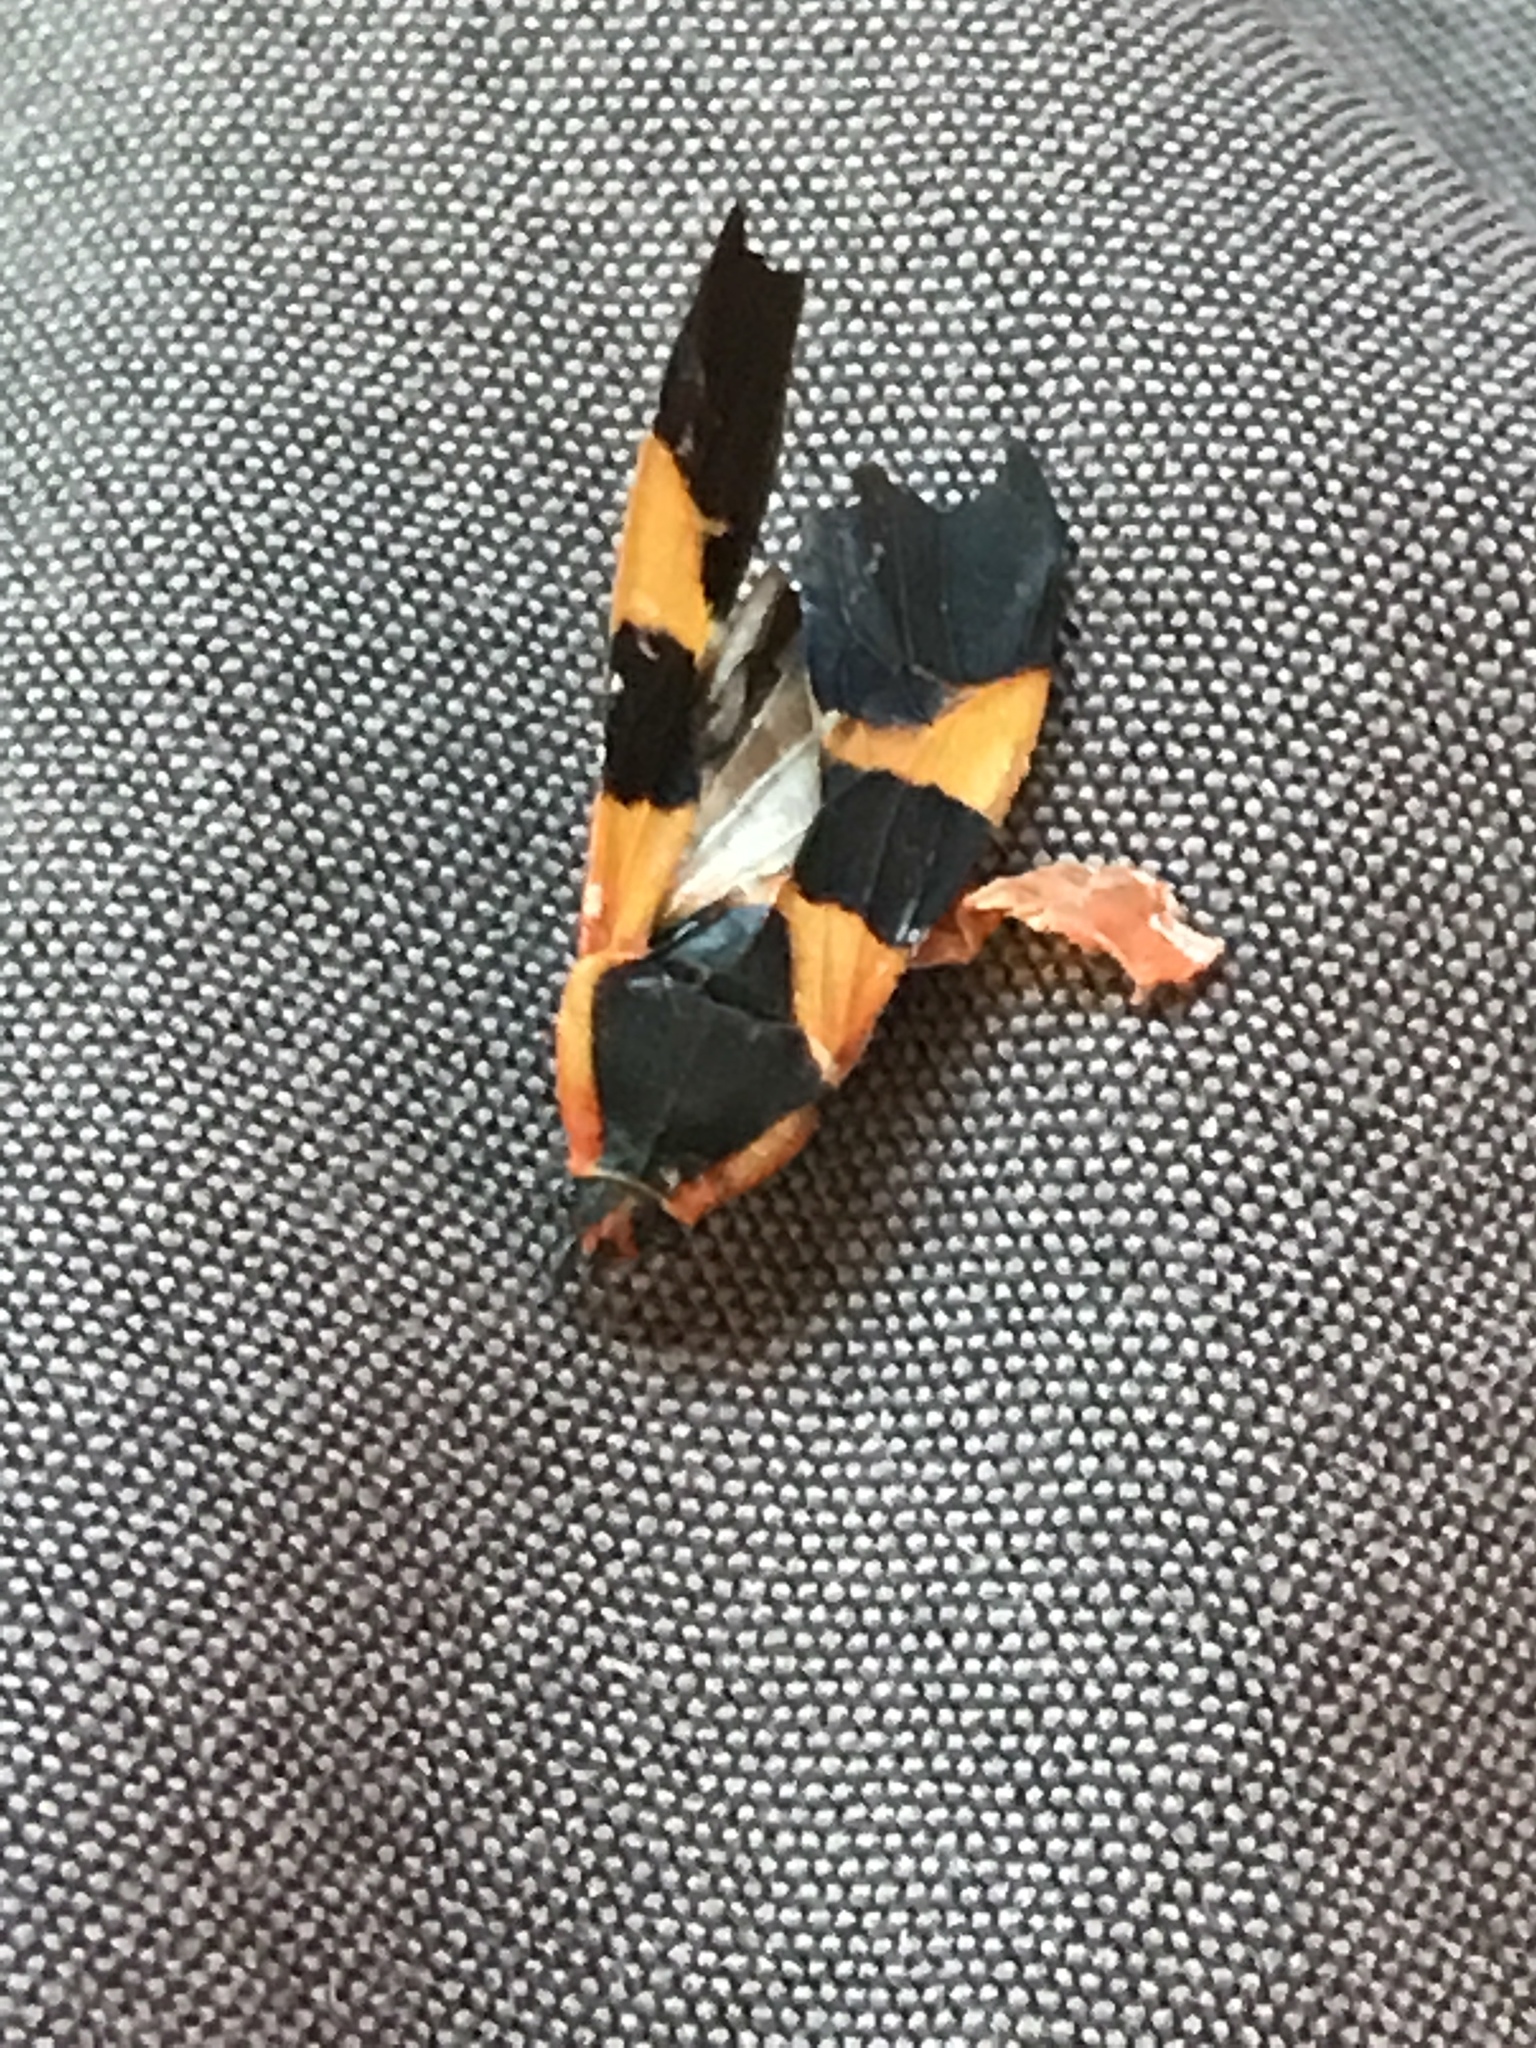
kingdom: Animalia
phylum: Arthropoda
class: Insecta
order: Hemiptera
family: Lygaeidae
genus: Oncopeltus
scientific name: Oncopeltus fasciatus
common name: Large milkweed bug
